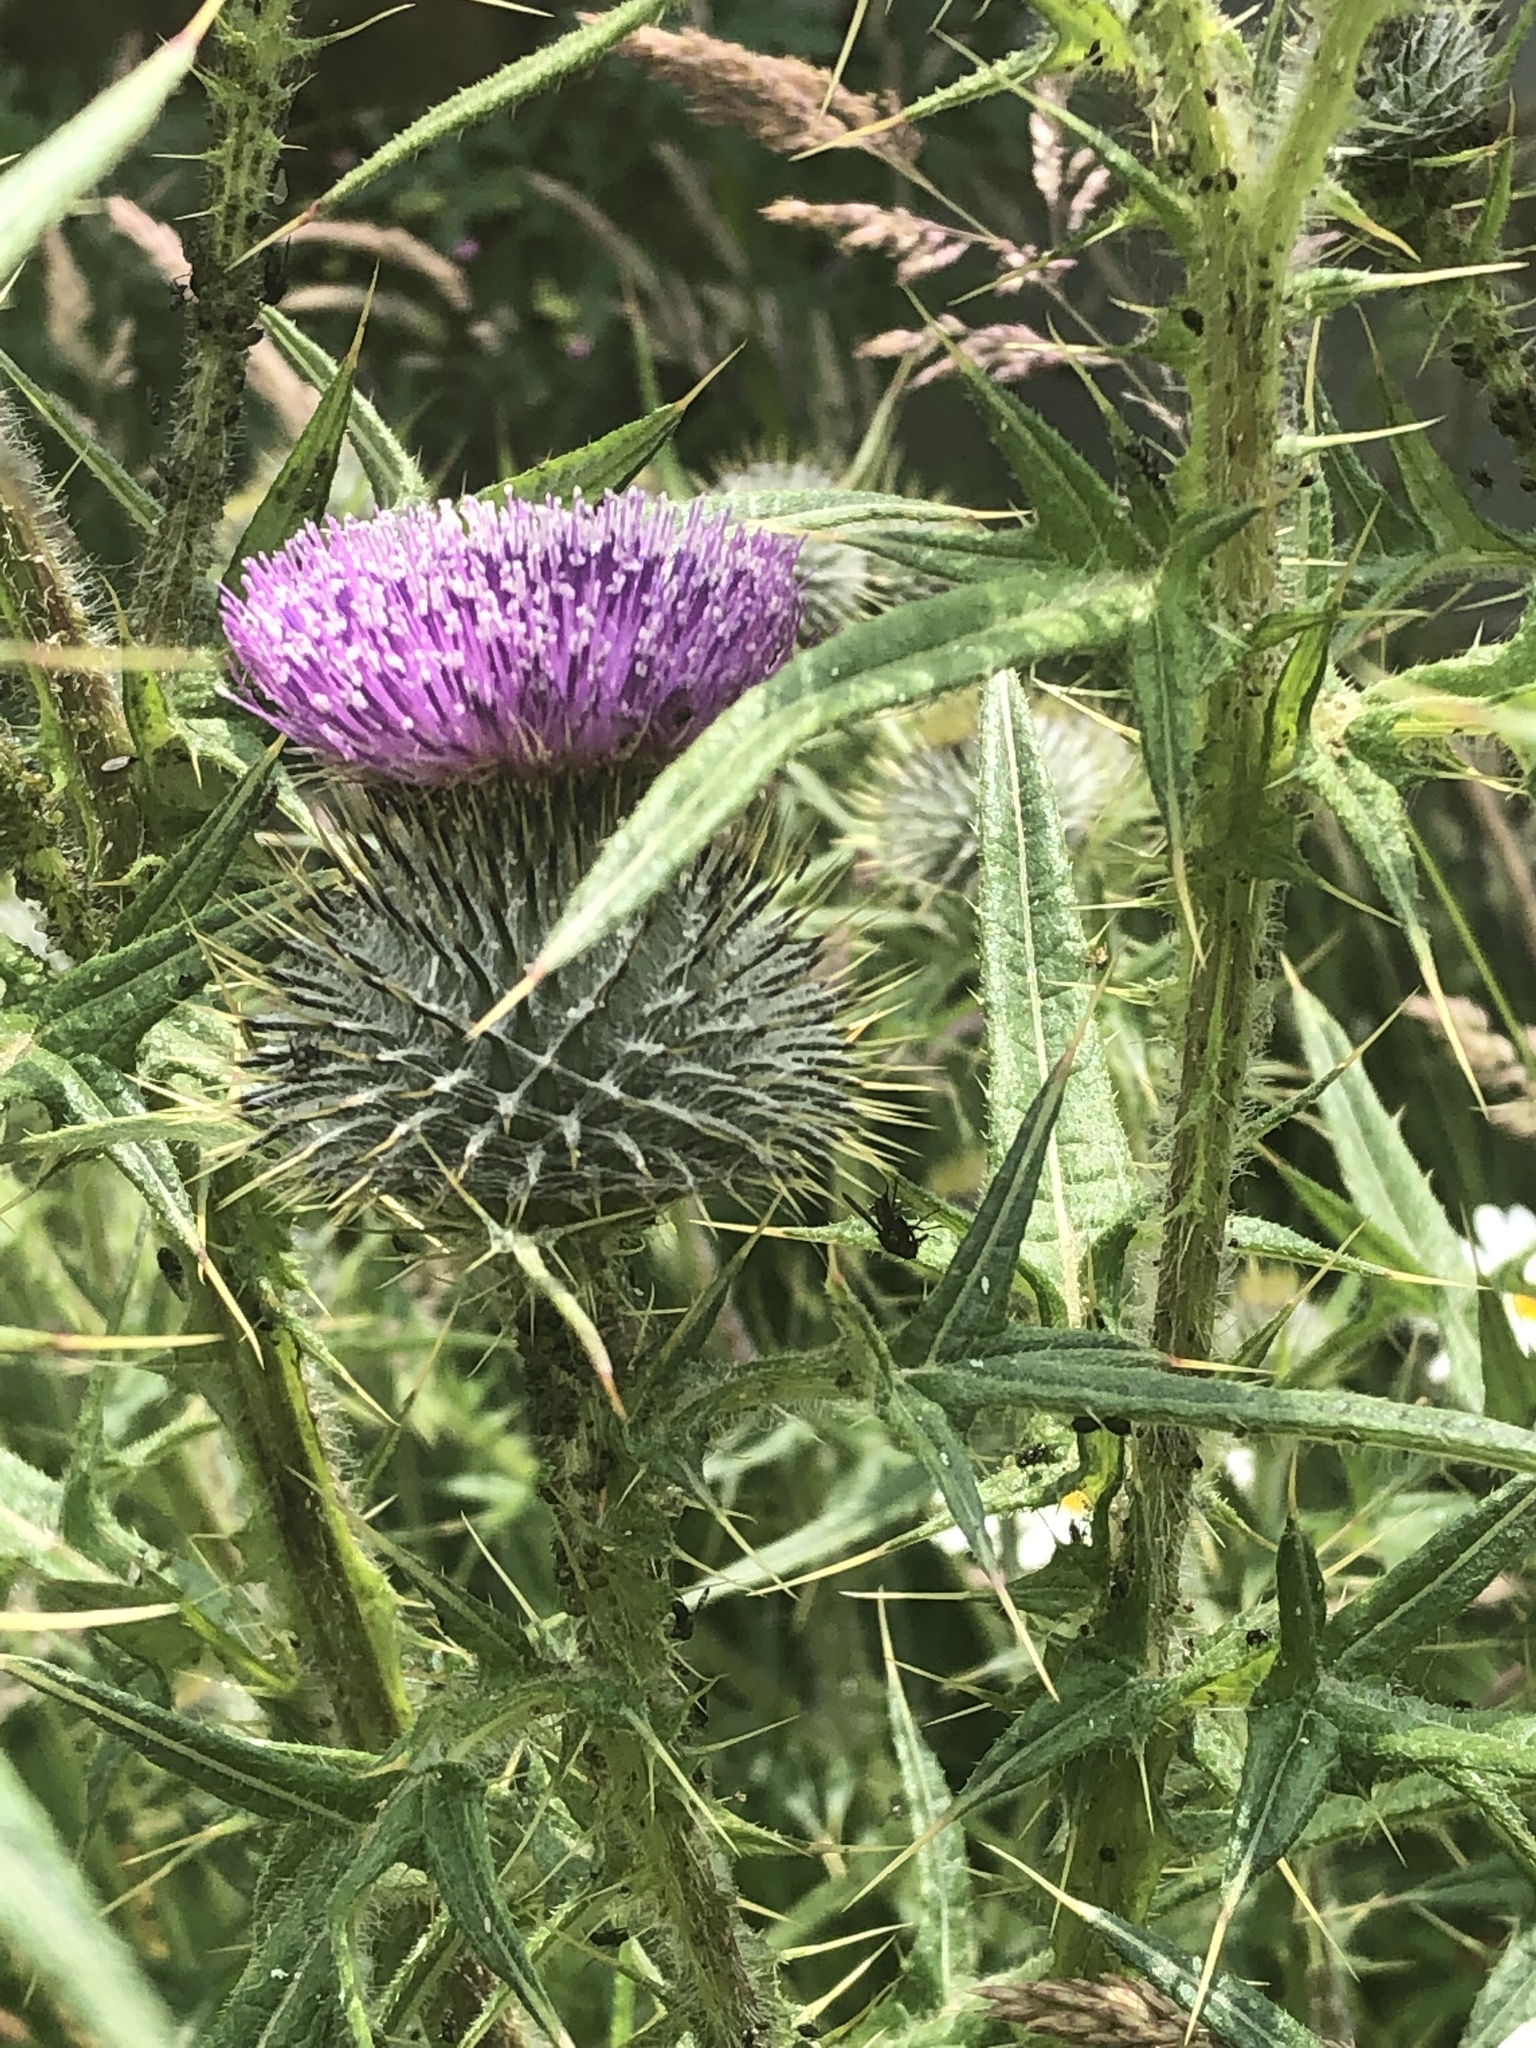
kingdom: Plantae
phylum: Tracheophyta
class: Magnoliopsida
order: Asterales
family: Asteraceae
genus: Cirsium
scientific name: Cirsium vulgare
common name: Bull thistle
